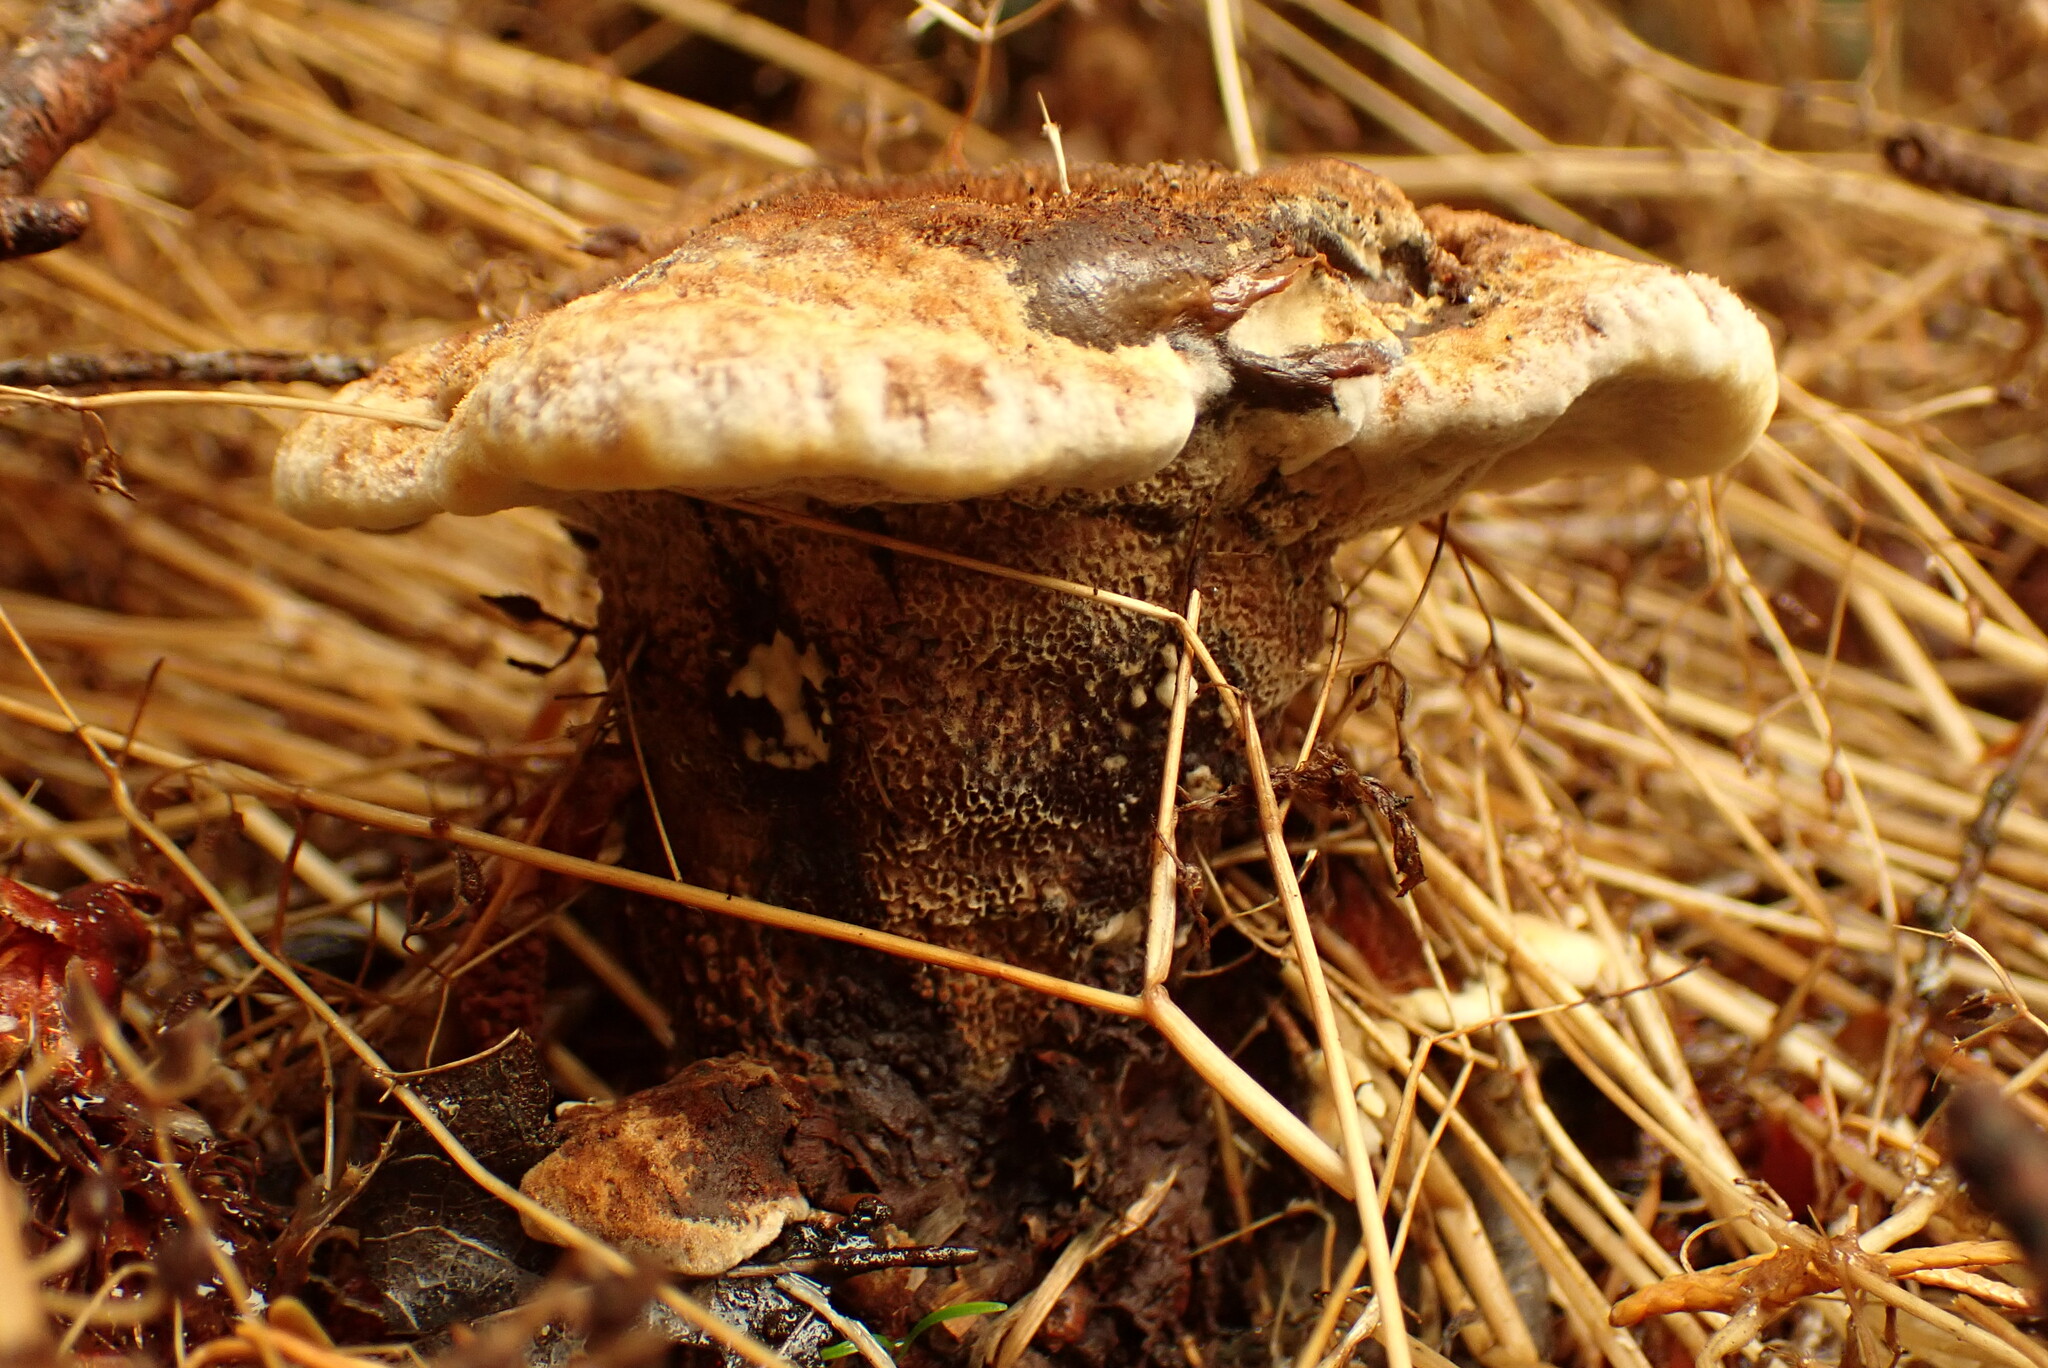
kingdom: Fungi
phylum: Basidiomycota
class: Agaricomycetes
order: Polyporales
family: Laetiporaceae
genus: Phaeolus
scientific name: Phaeolus schweinitzii
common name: Dyer's mazegill
